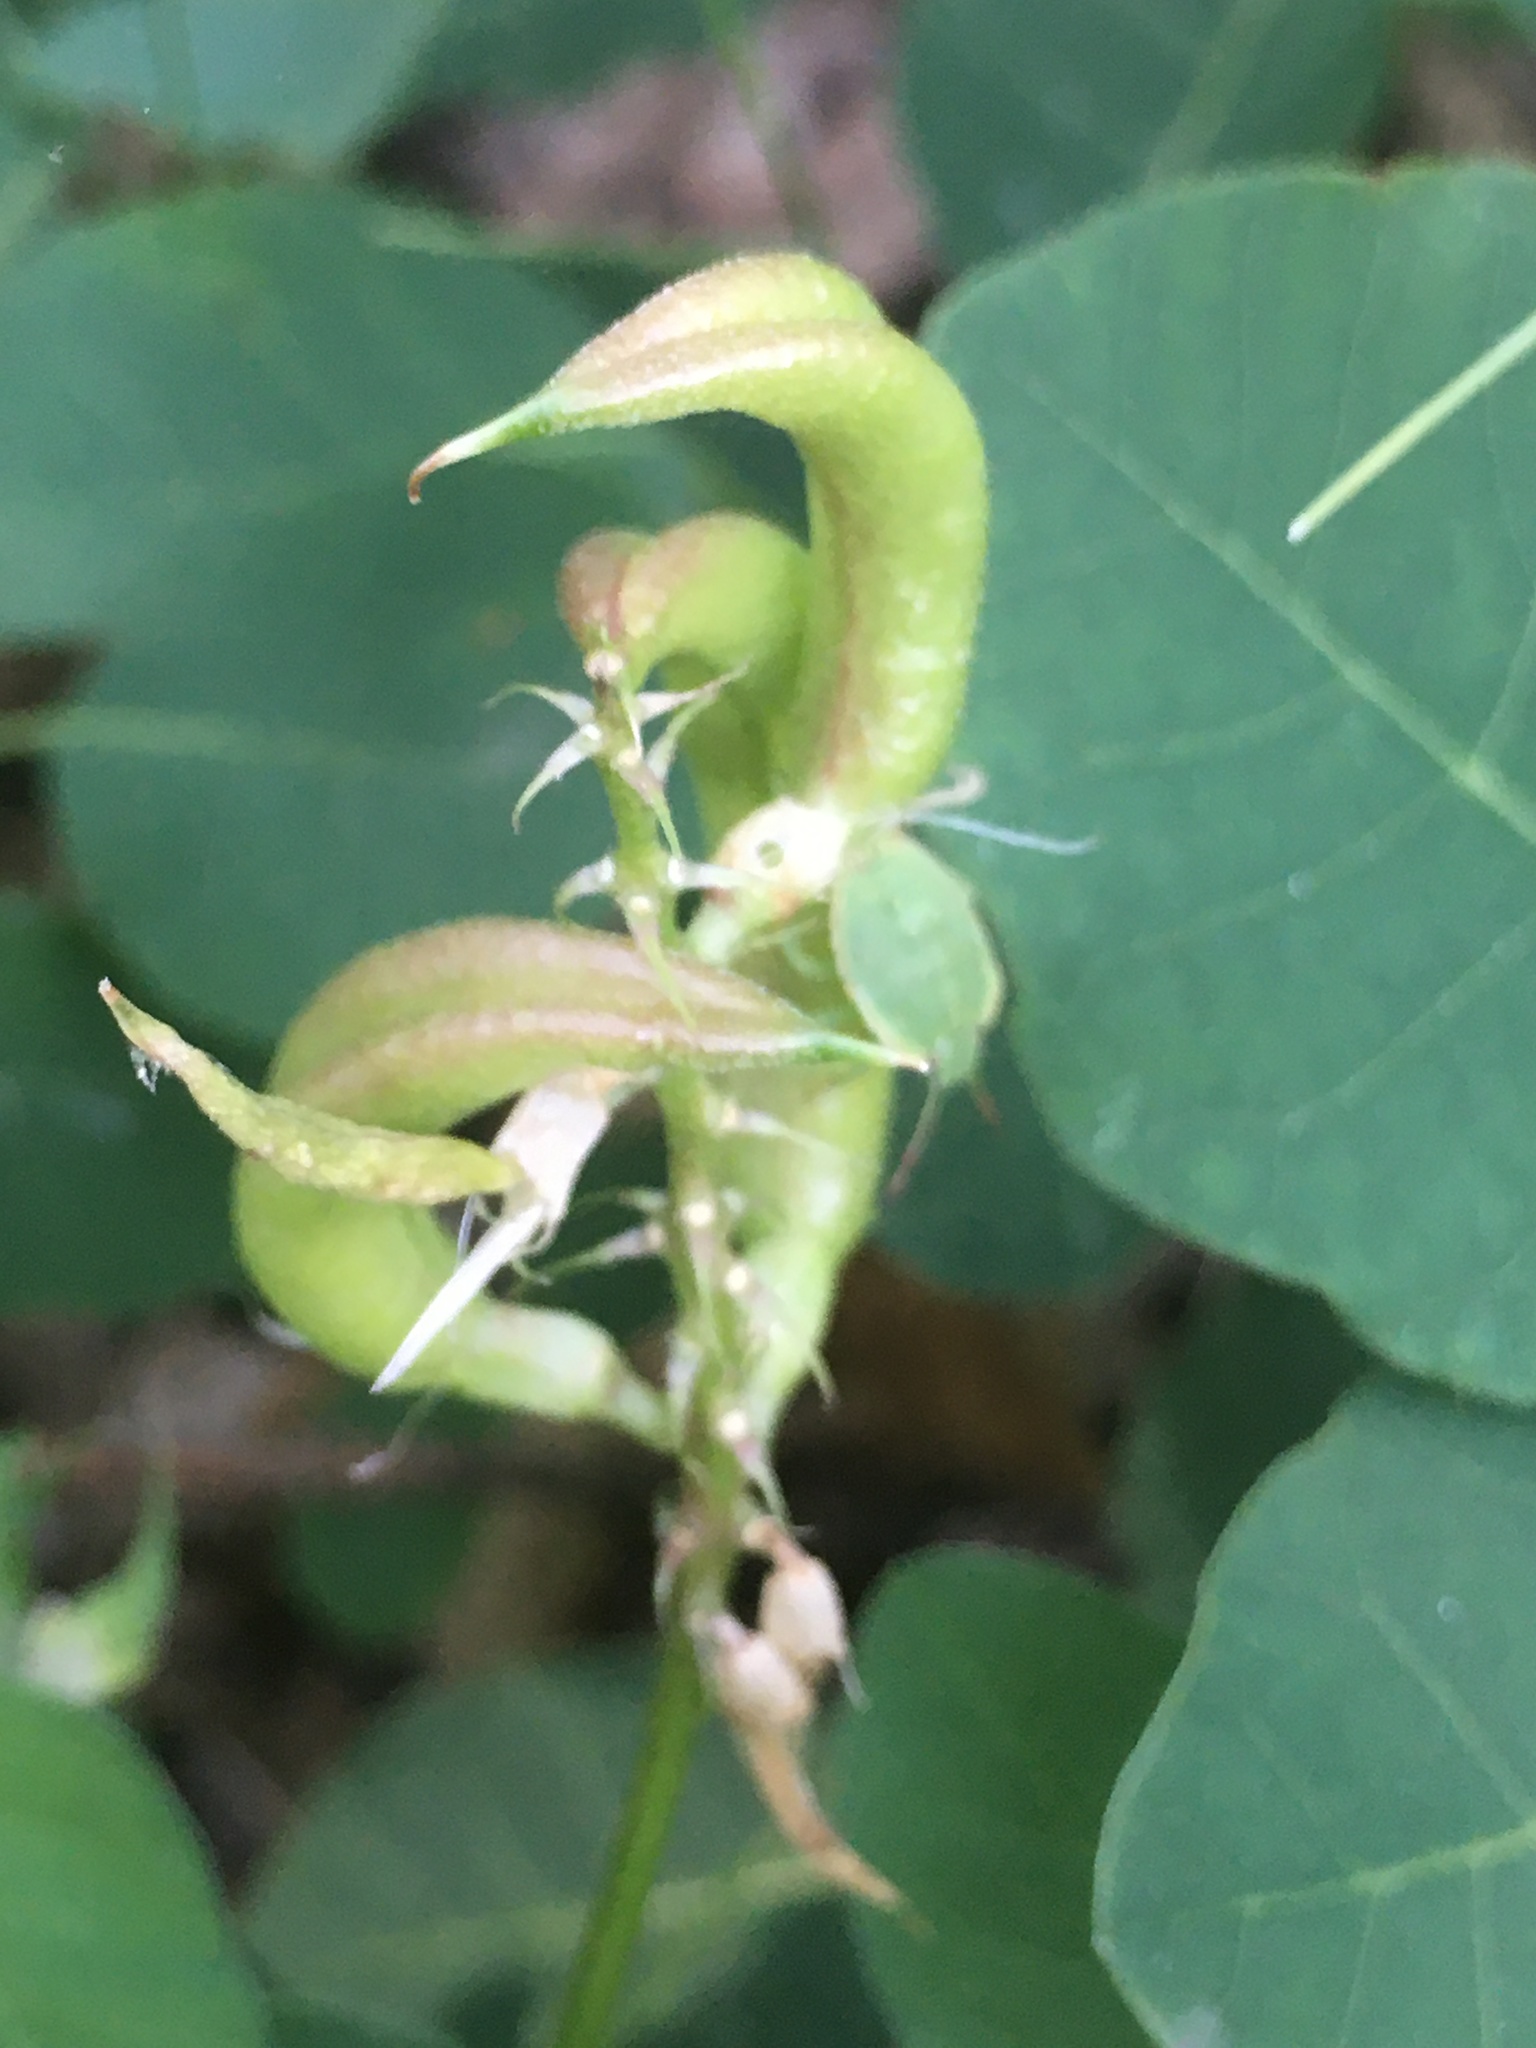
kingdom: Plantae
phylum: Tracheophyta
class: Magnoliopsida
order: Fabales
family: Fabaceae
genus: Astragalus
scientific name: Astragalus glycyphyllos
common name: Wild liquorice
